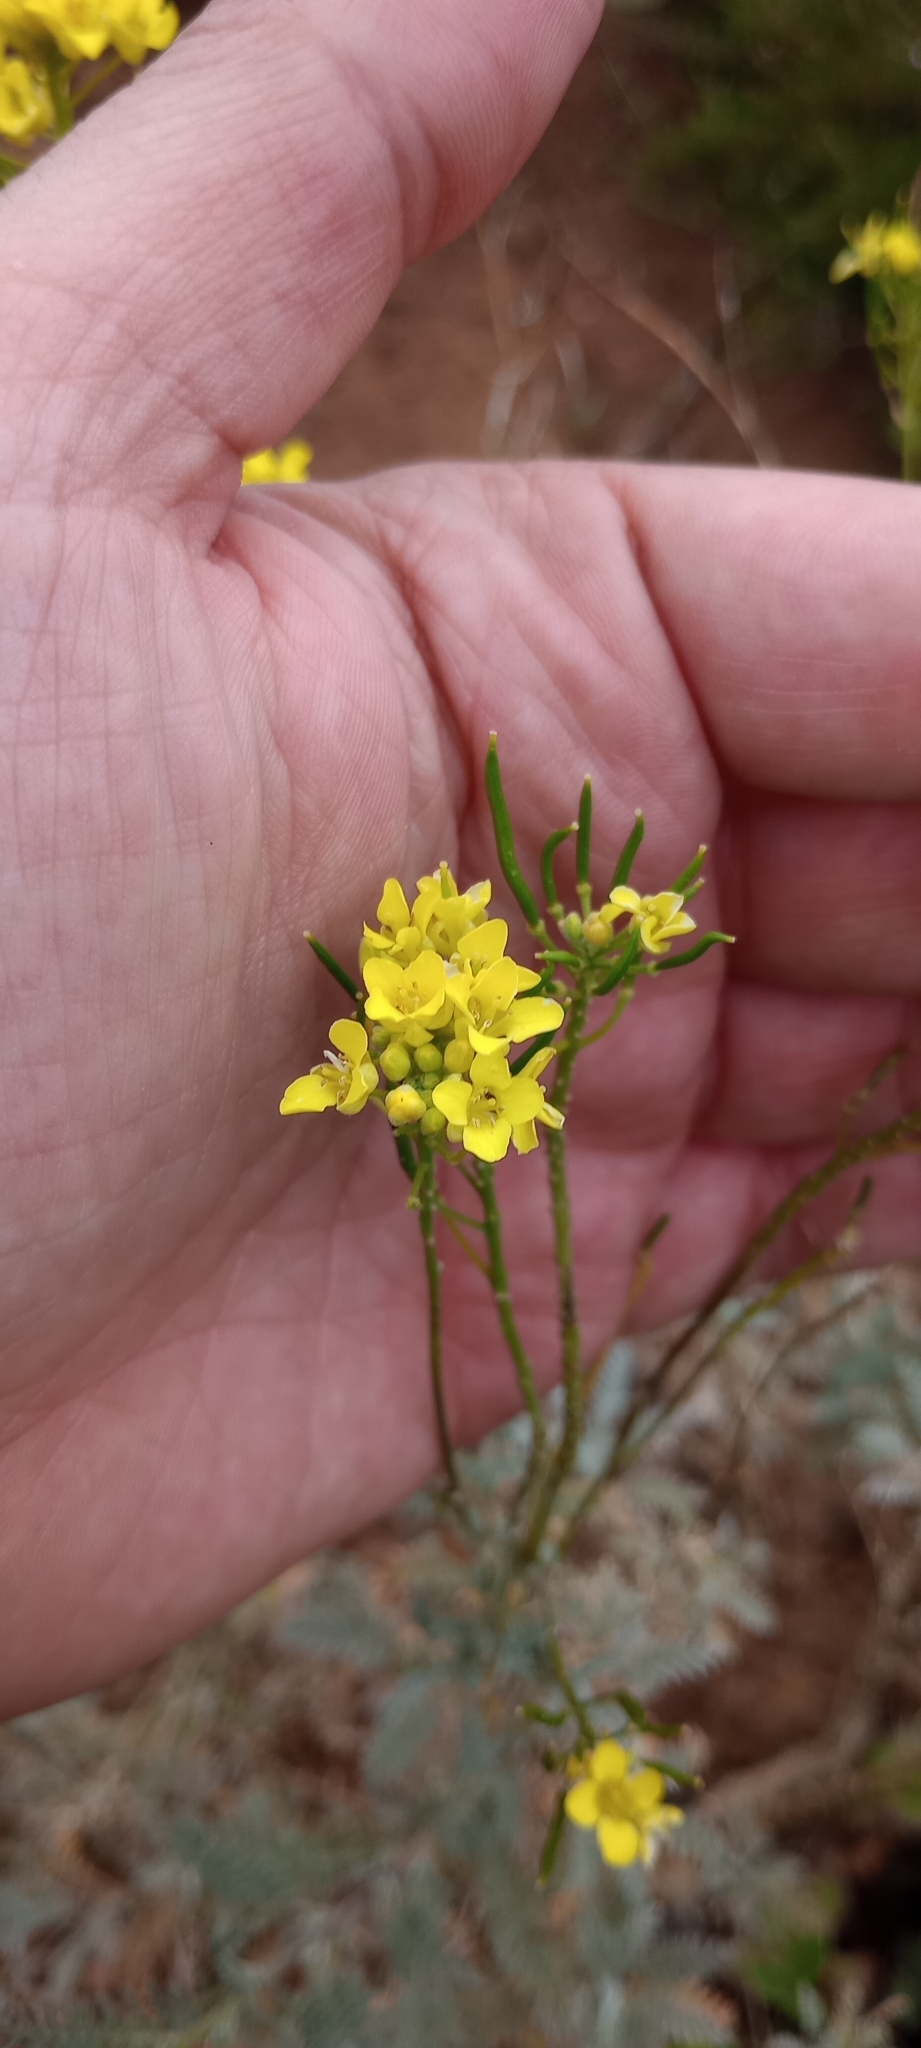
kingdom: Plantae
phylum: Tracheophyta
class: Magnoliopsida
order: Brassicales
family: Brassicaceae
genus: Descurainia
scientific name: Descurainia millefolia
